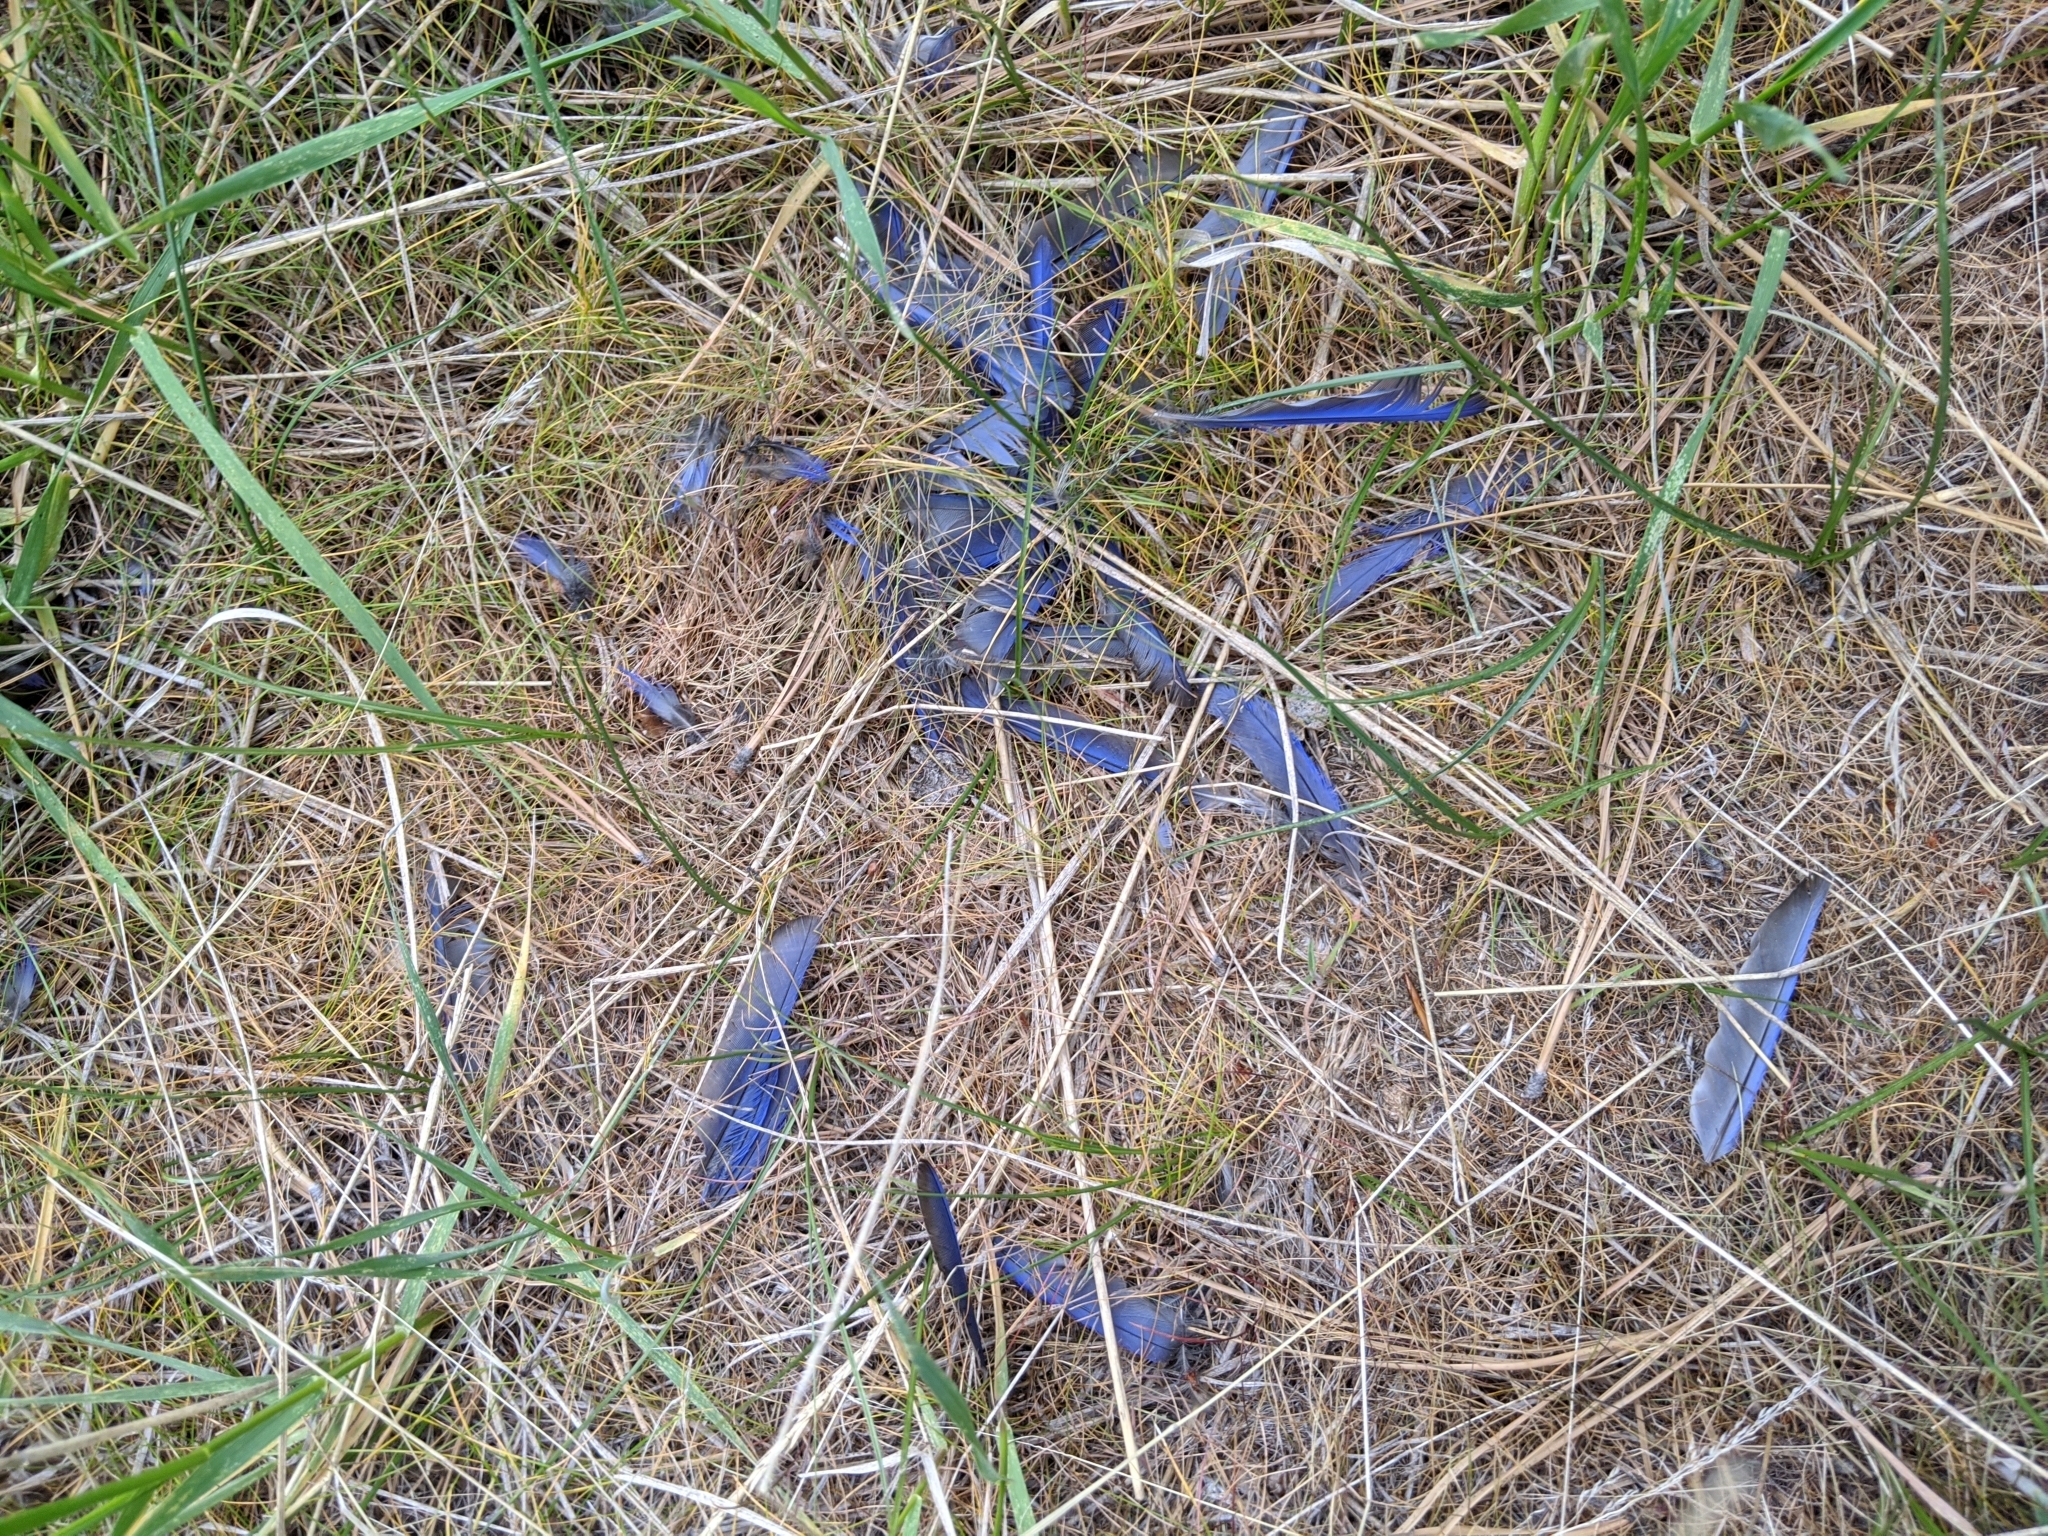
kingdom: Animalia
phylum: Chordata
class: Aves
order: Passeriformes
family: Turdidae
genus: Sialia
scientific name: Sialia mexicana
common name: Western bluebird
